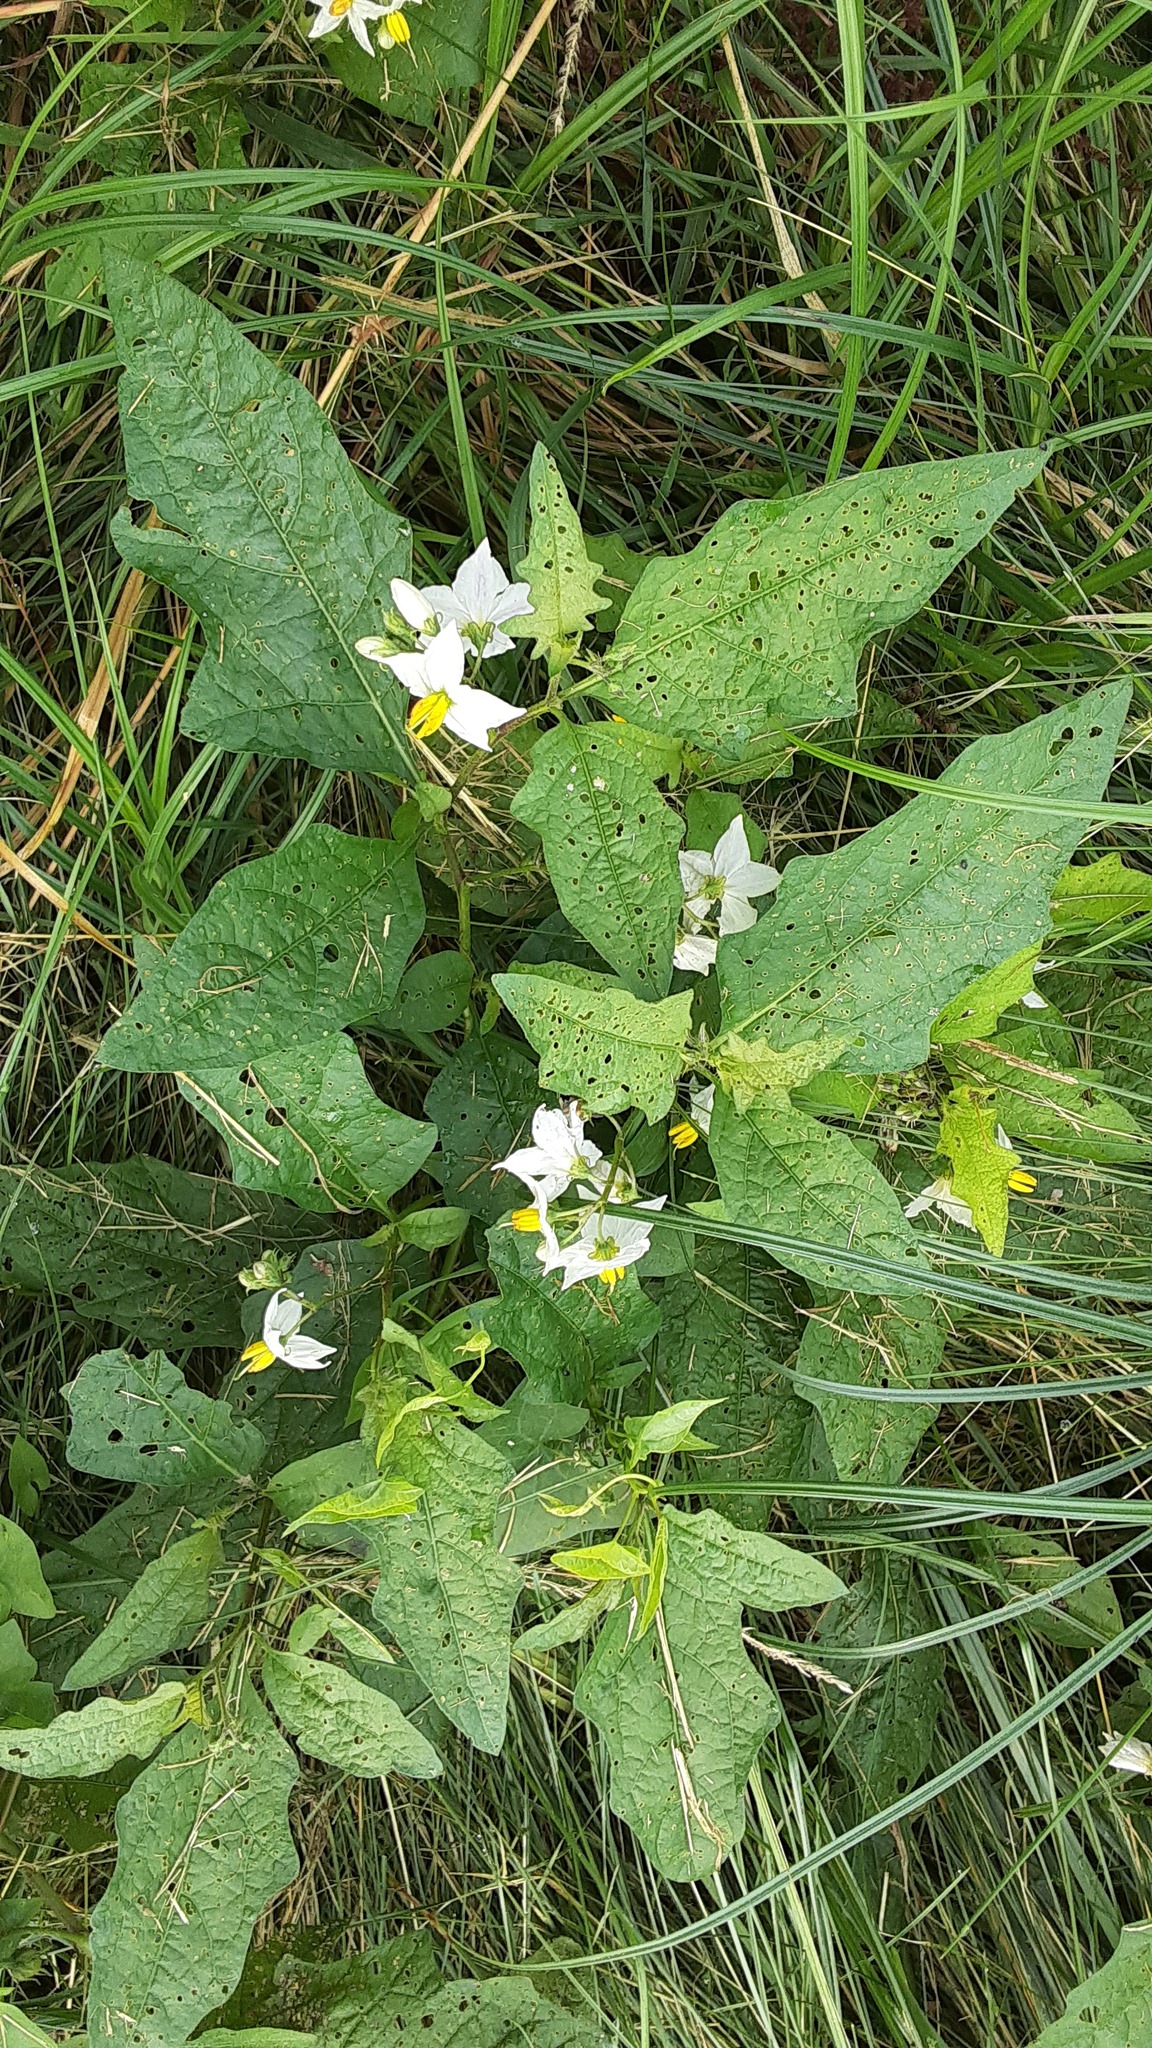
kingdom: Plantae
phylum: Tracheophyta
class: Magnoliopsida
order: Solanales
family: Solanaceae
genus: Solanum
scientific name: Solanum carolinense
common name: Horse-nettle
